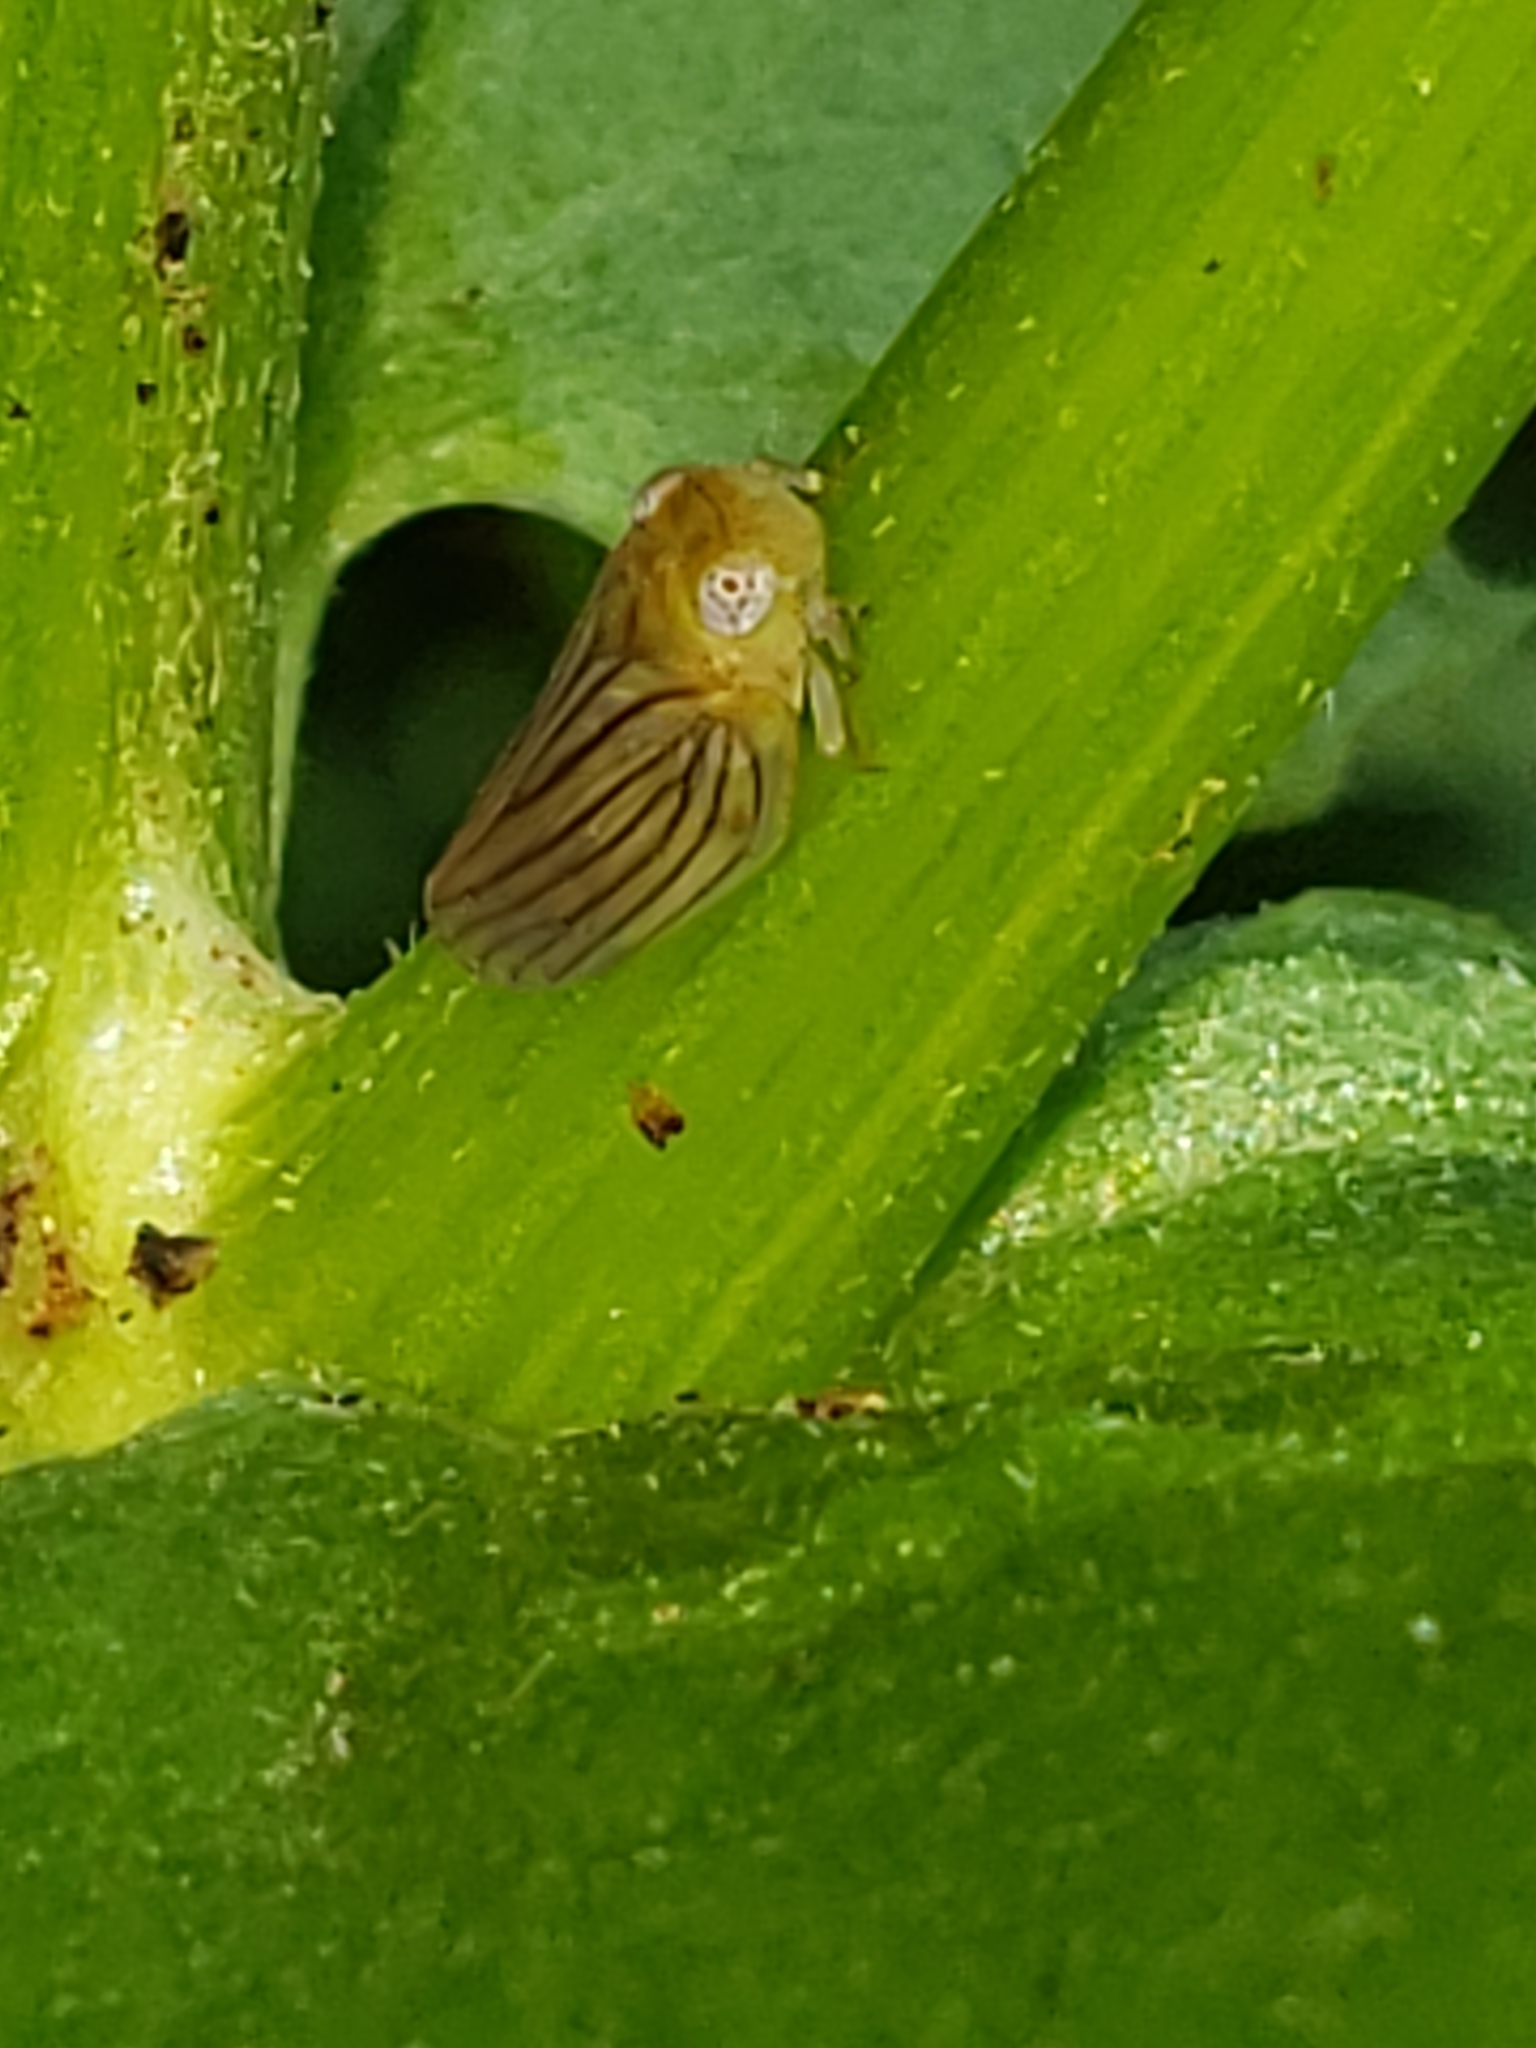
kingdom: Animalia
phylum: Arthropoda
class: Insecta
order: Hemiptera
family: Issidae
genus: Aplos
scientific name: Aplos simplex
